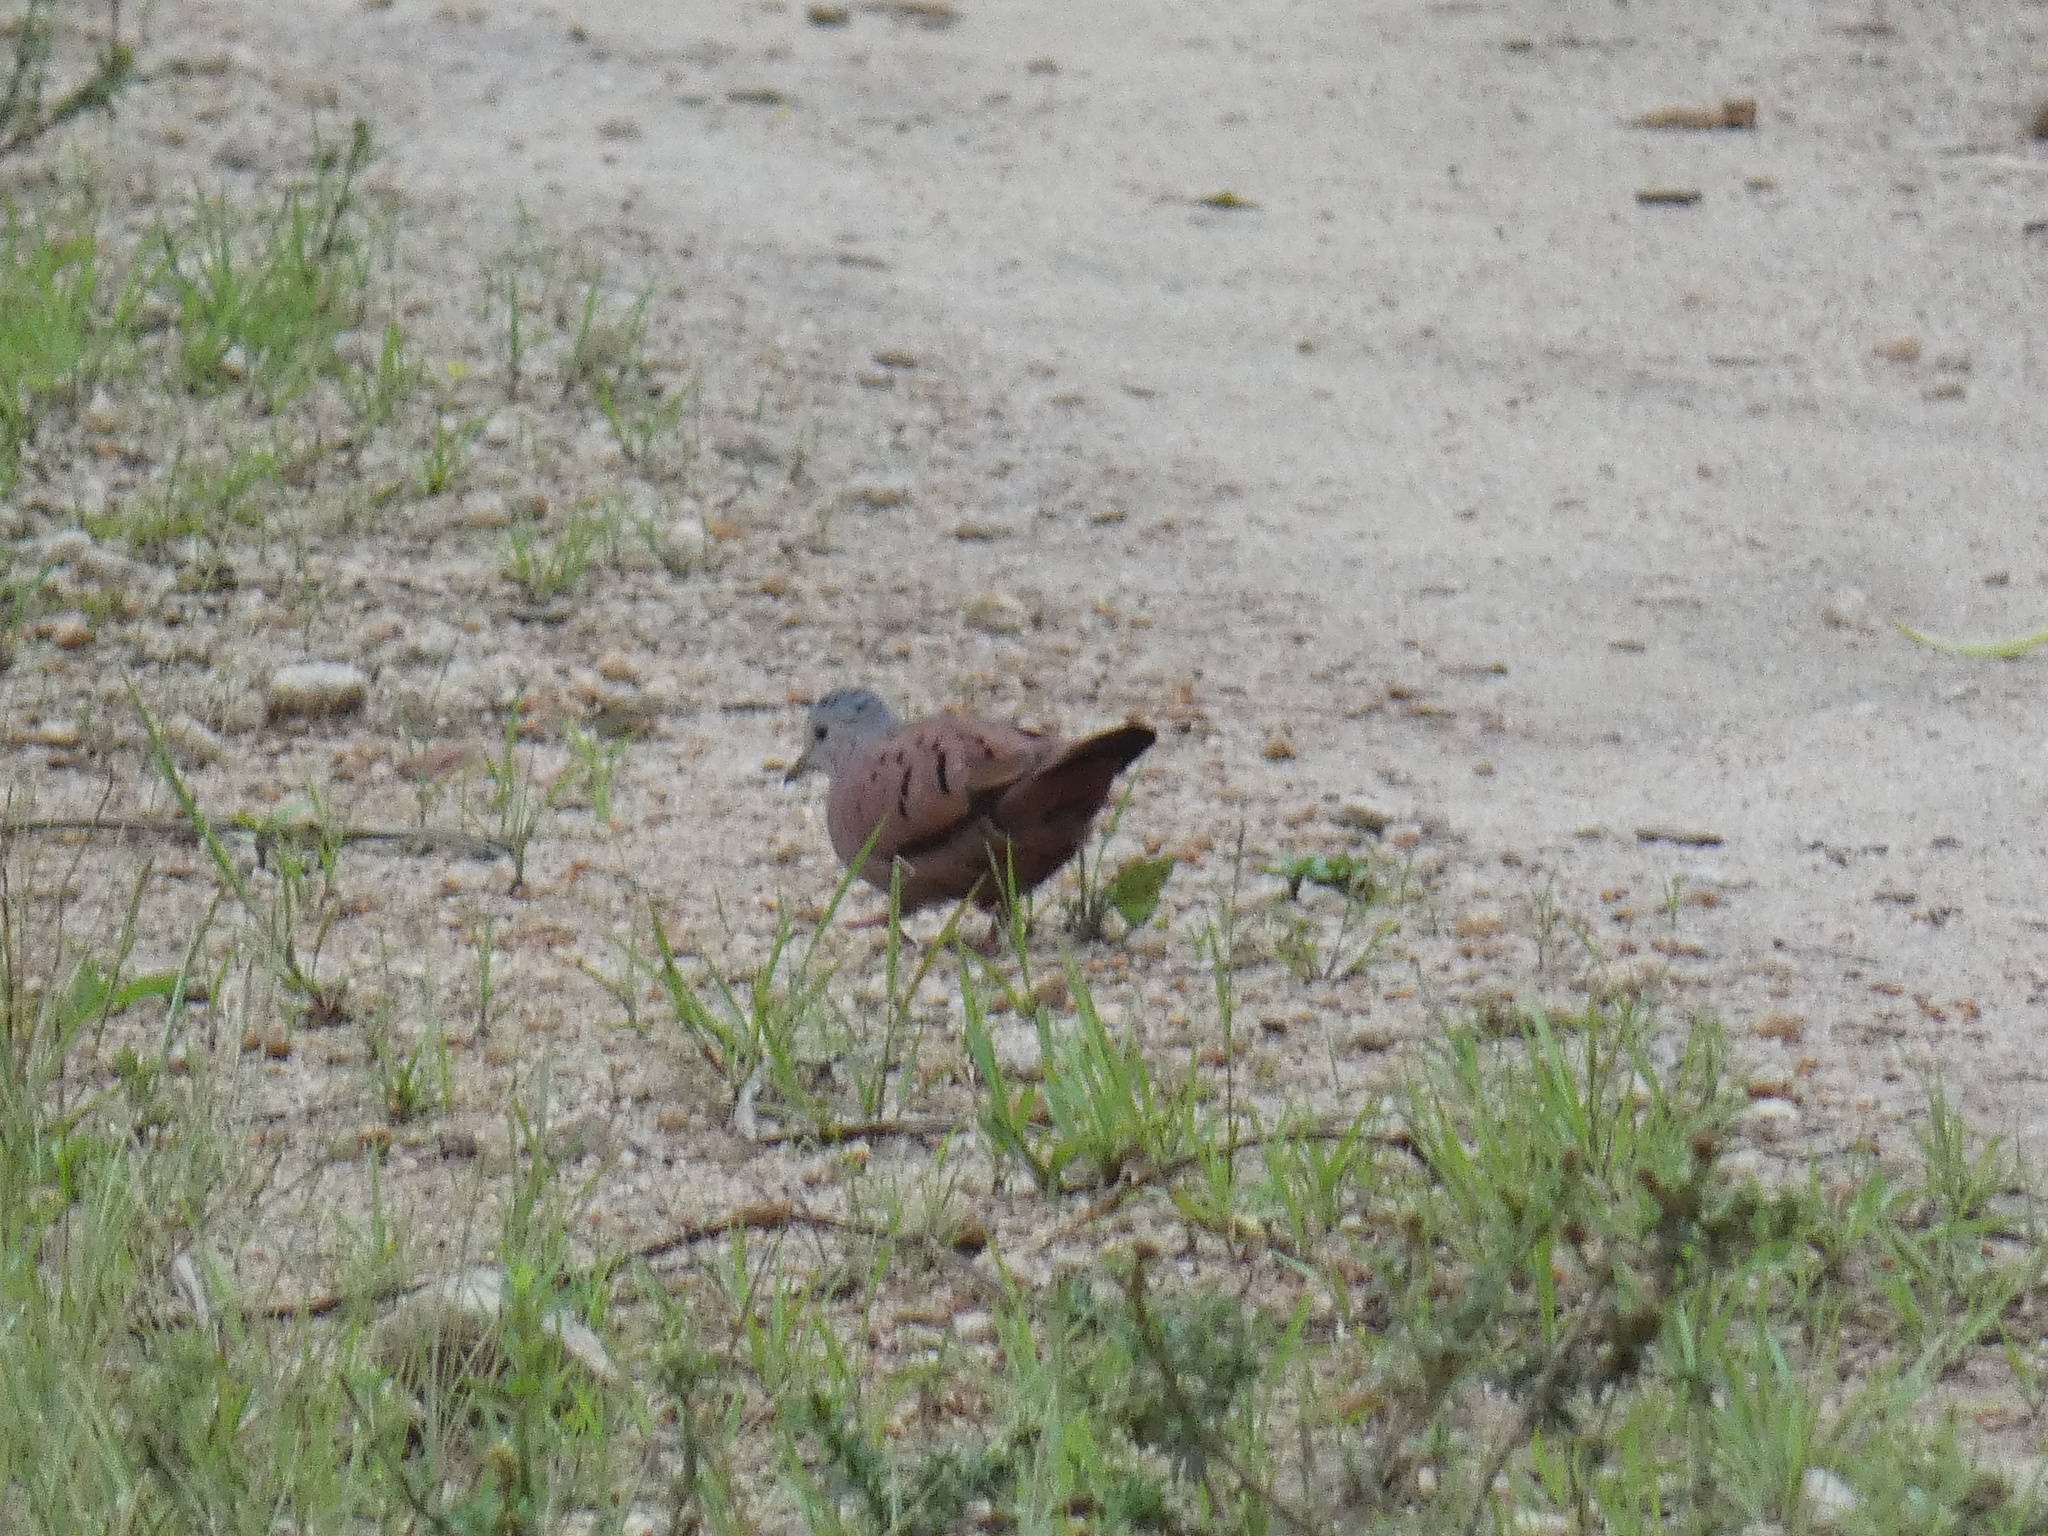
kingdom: Animalia
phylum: Chordata
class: Aves
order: Columbiformes
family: Columbidae
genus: Columbina
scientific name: Columbina talpacoti
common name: Ruddy ground dove
